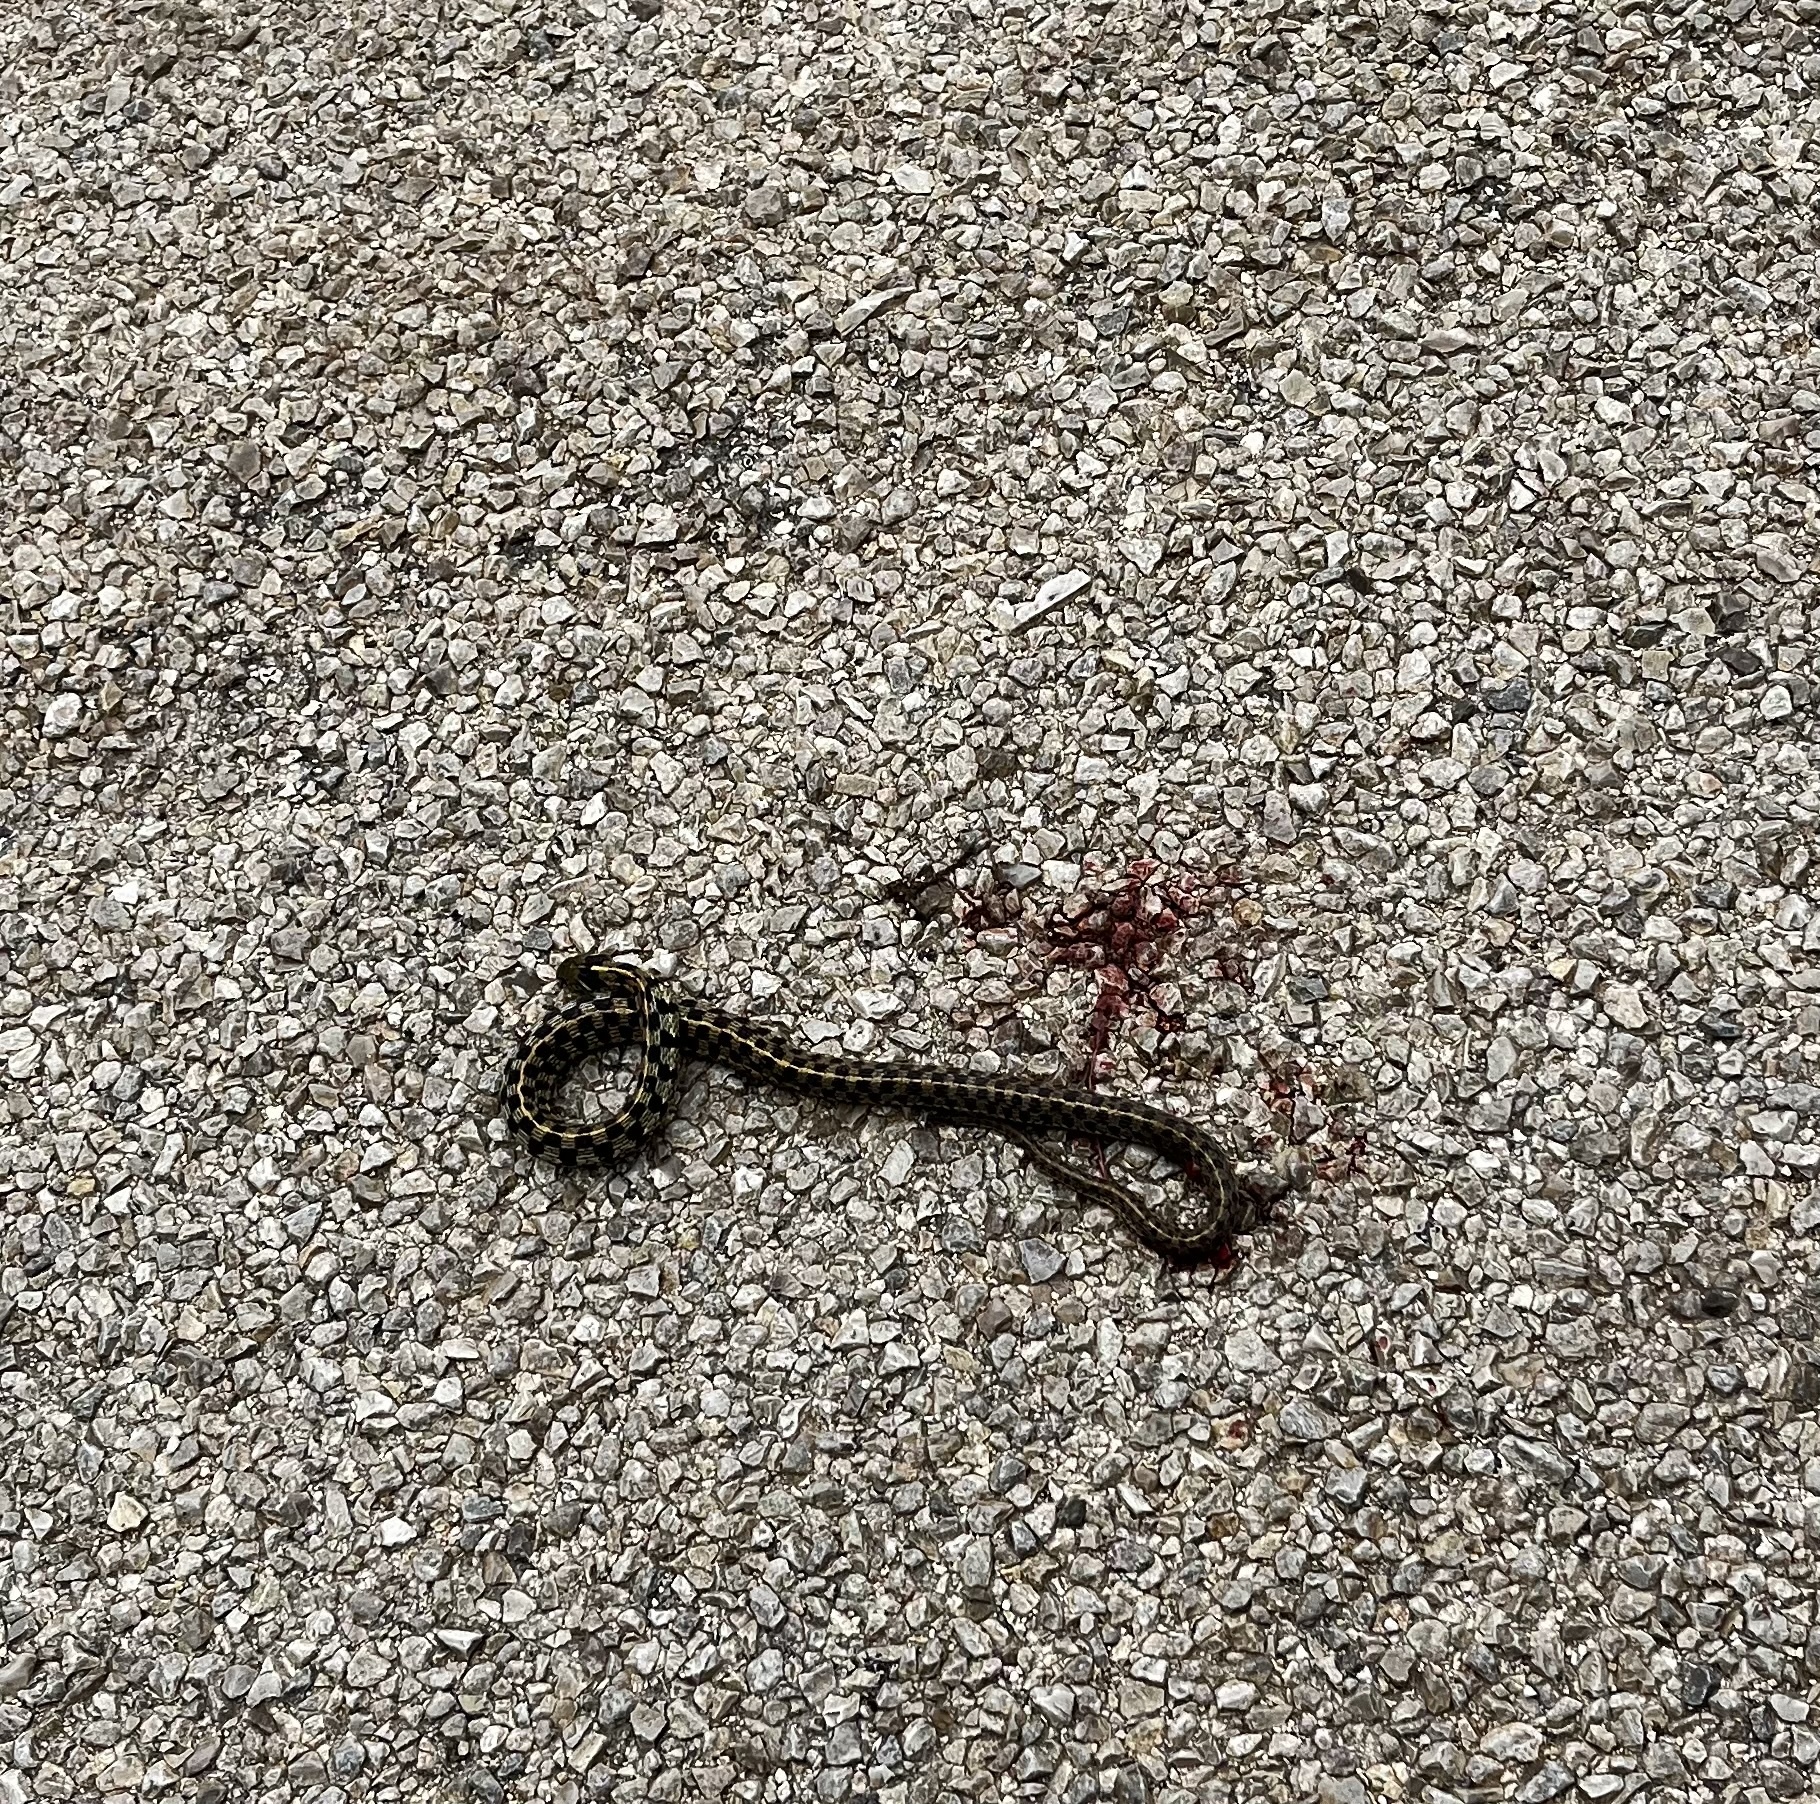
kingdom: Animalia
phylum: Chordata
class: Squamata
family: Colubridae
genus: Thamnophis
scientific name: Thamnophis marcianus
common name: Checkered garter snake
